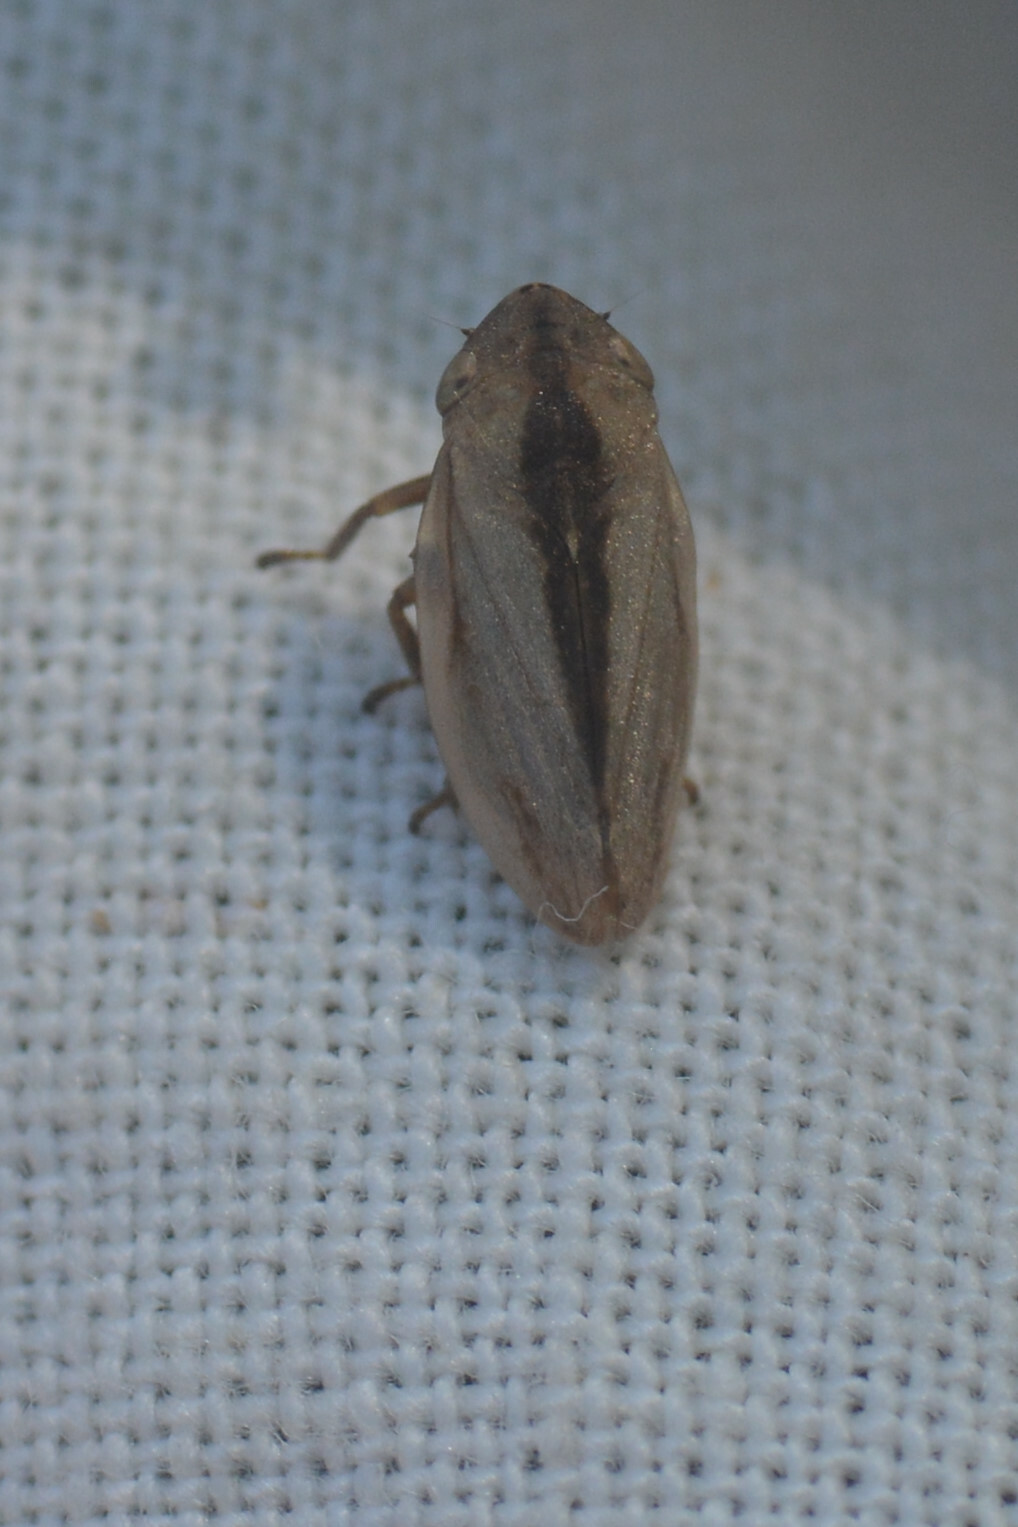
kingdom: Animalia
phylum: Arthropoda
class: Insecta
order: Hemiptera
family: Aphrophoridae
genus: Philaenus
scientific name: Philaenus spumarius
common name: Meadow spittlebug
